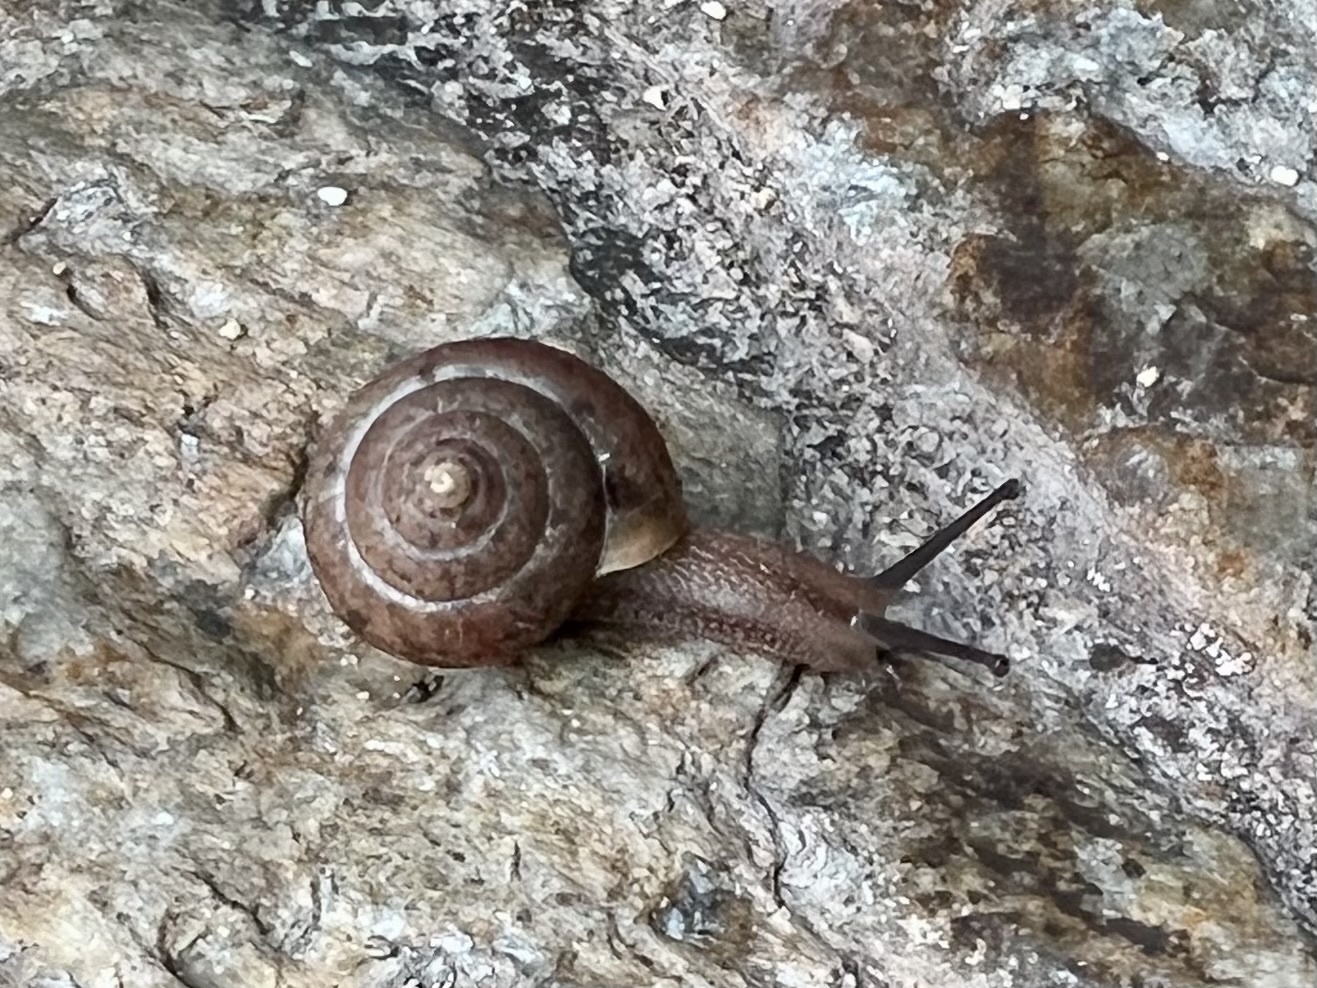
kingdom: Animalia
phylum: Mollusca
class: Gastropoda
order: Stylommatophora
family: Camaenidae
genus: Bradybaena
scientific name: Bradybaena similaris
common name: Asian trampsnail
